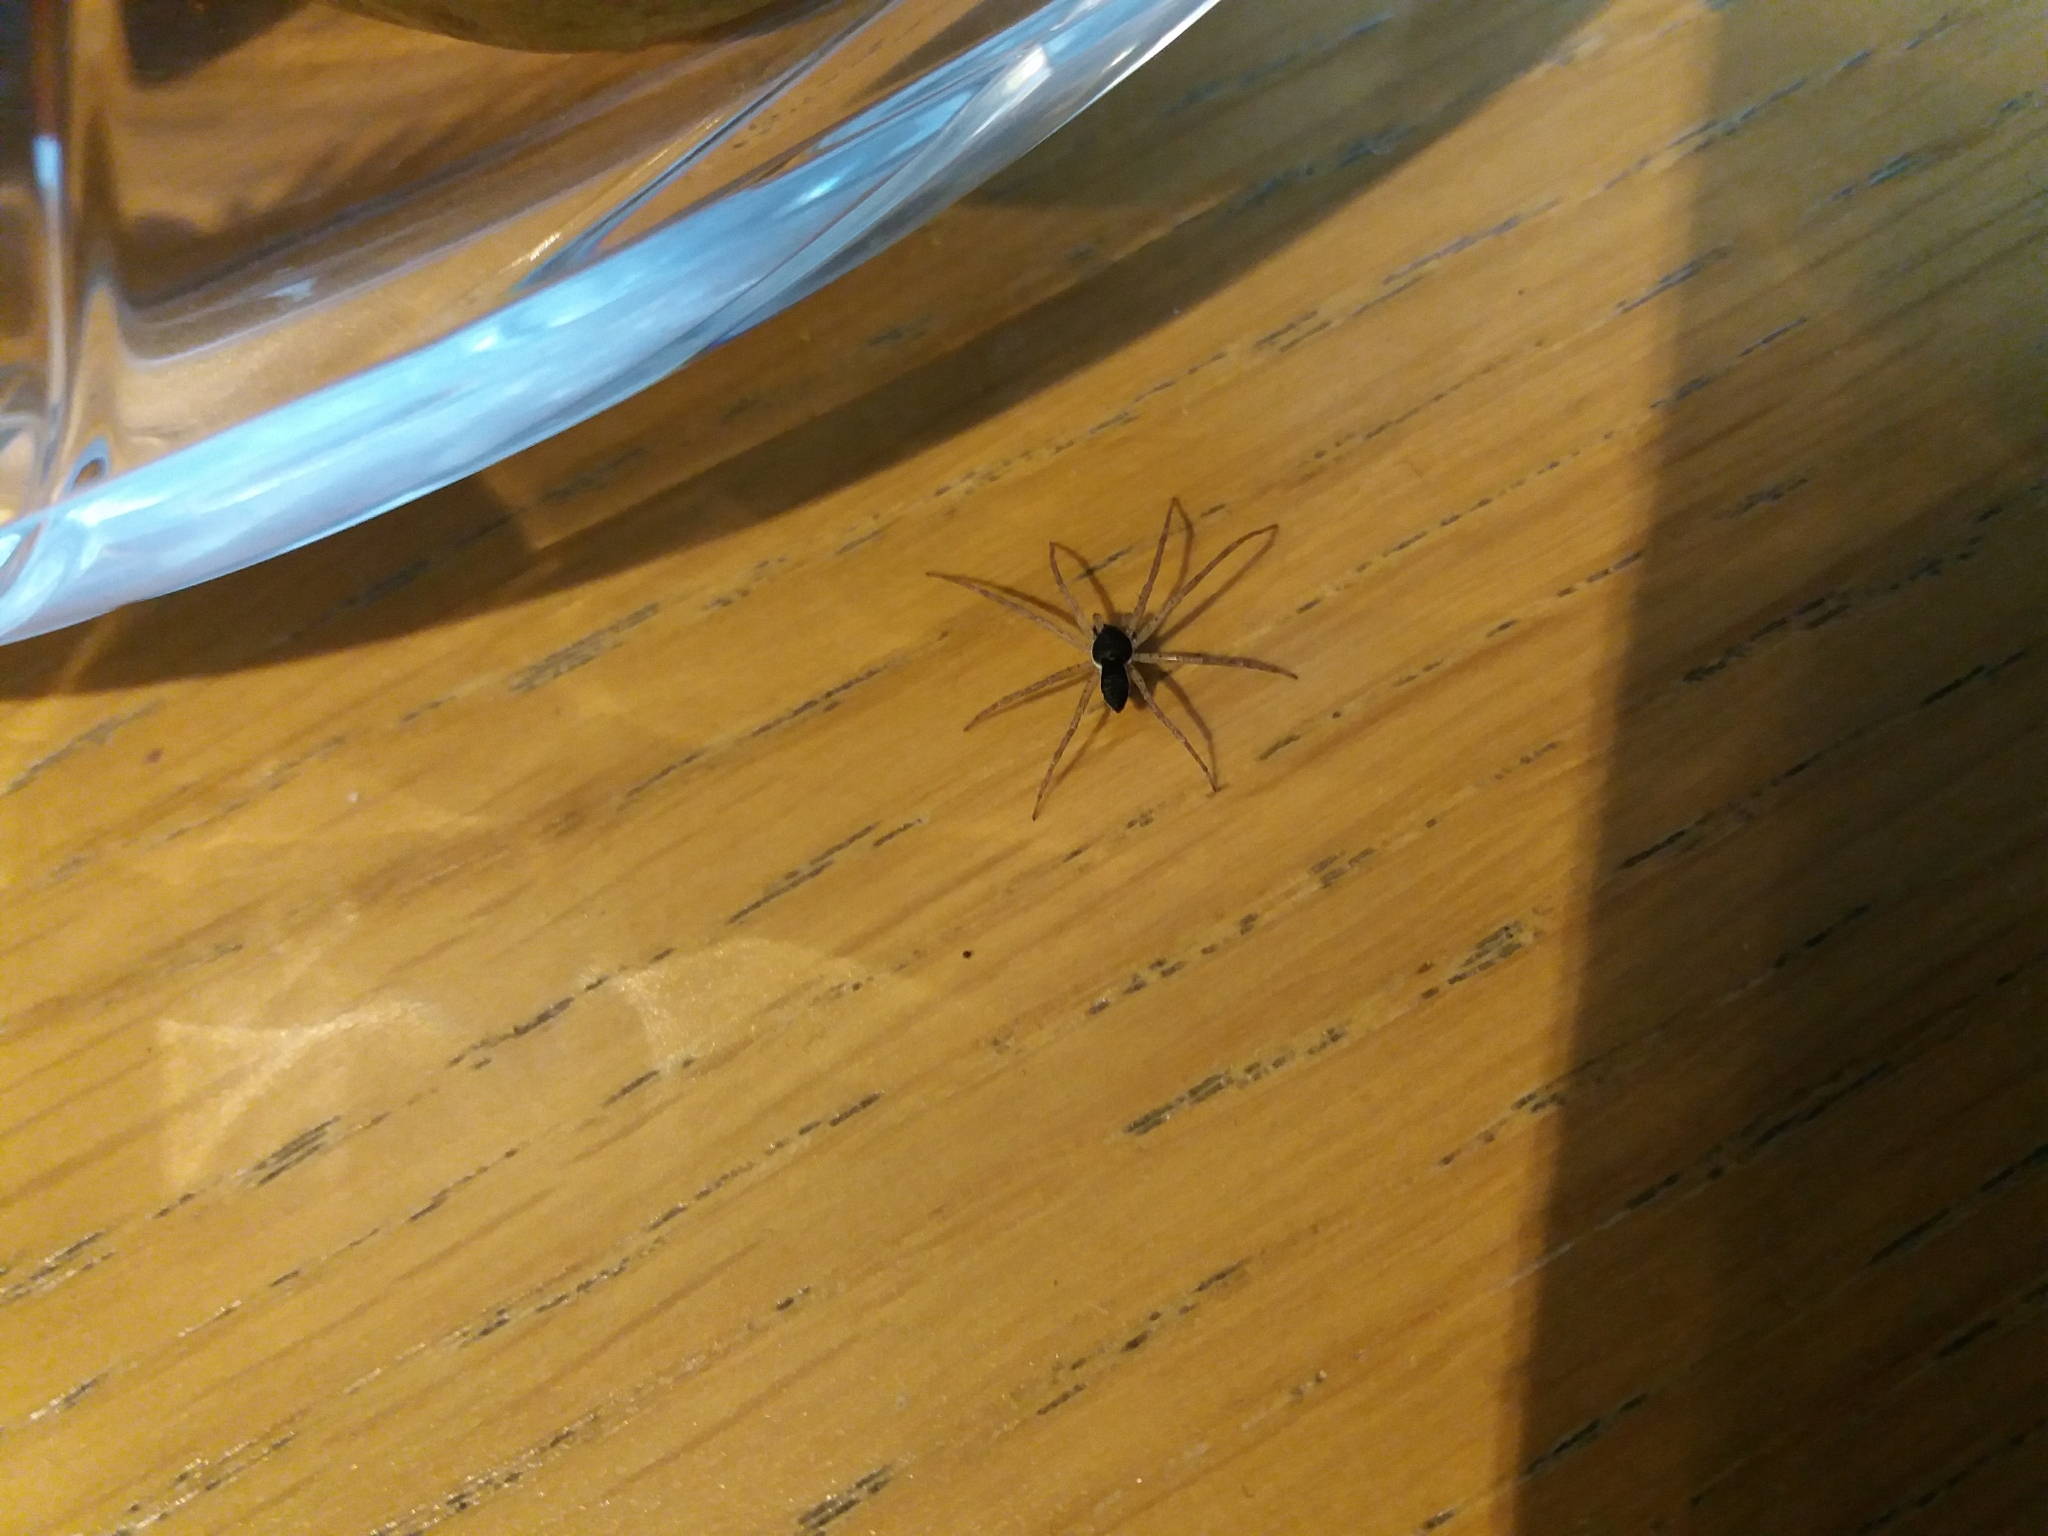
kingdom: Animalia
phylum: Arthropoda
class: Arachnida
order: Araneae
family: Philodromidae
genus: Philodromus
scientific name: Philodromus dispar
